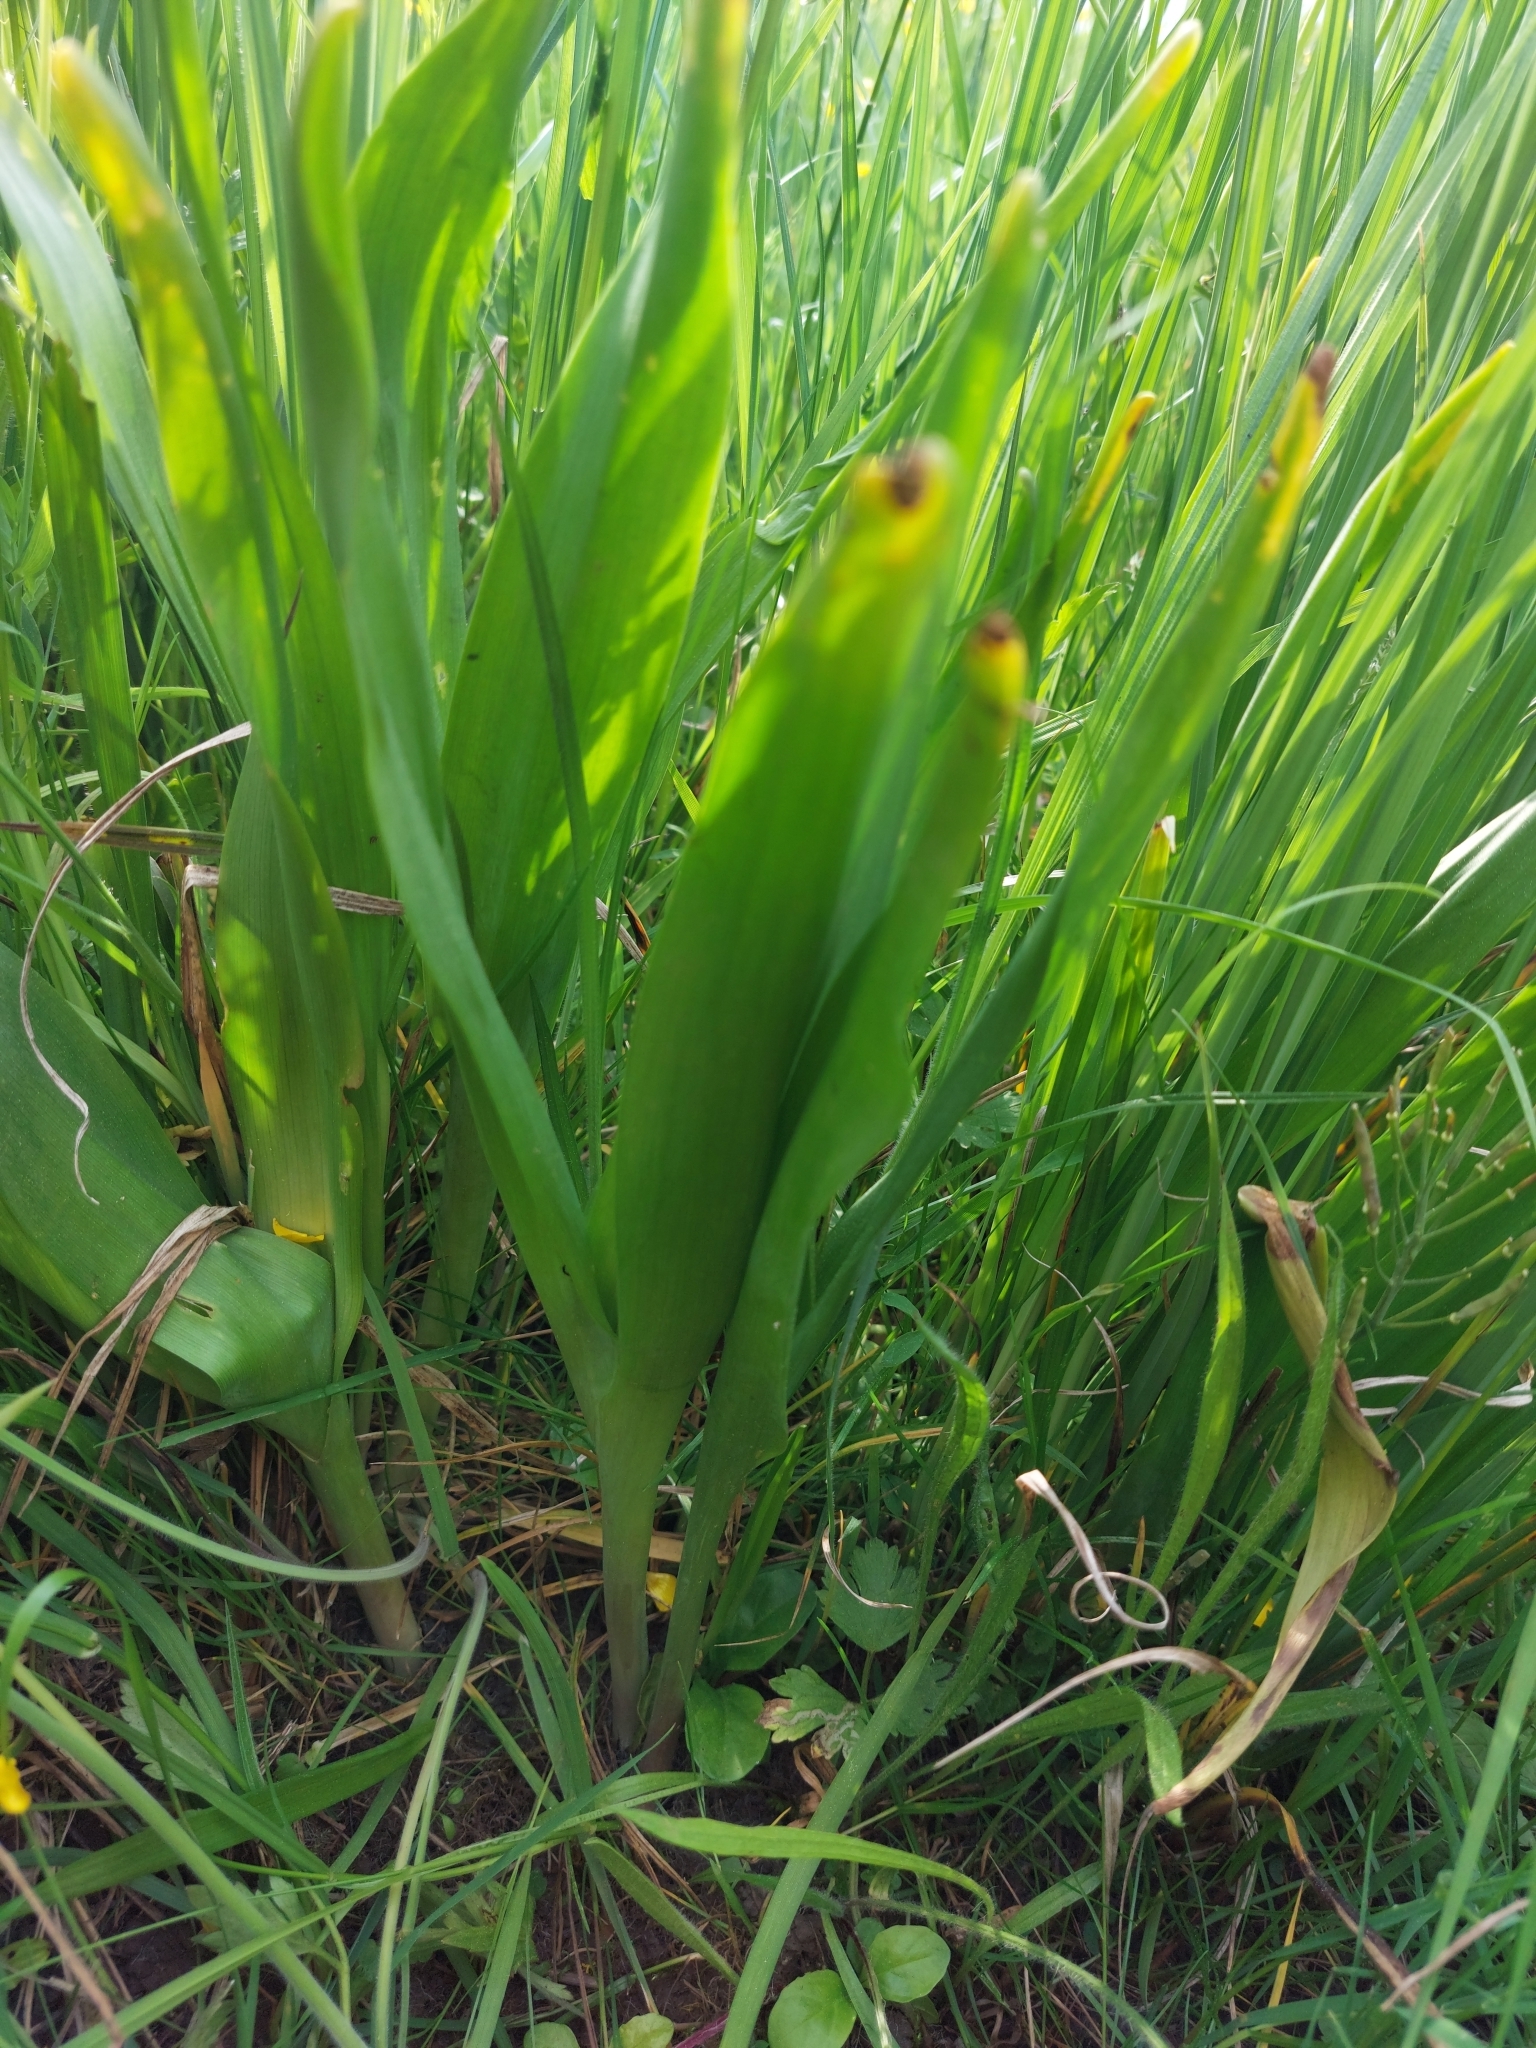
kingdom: Plantae
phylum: Tracheophyta
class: Liliopsida
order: Liliales
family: Colchicaceae
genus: Colchicum
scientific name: Colchicum autumnale
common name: Autumn crocus
